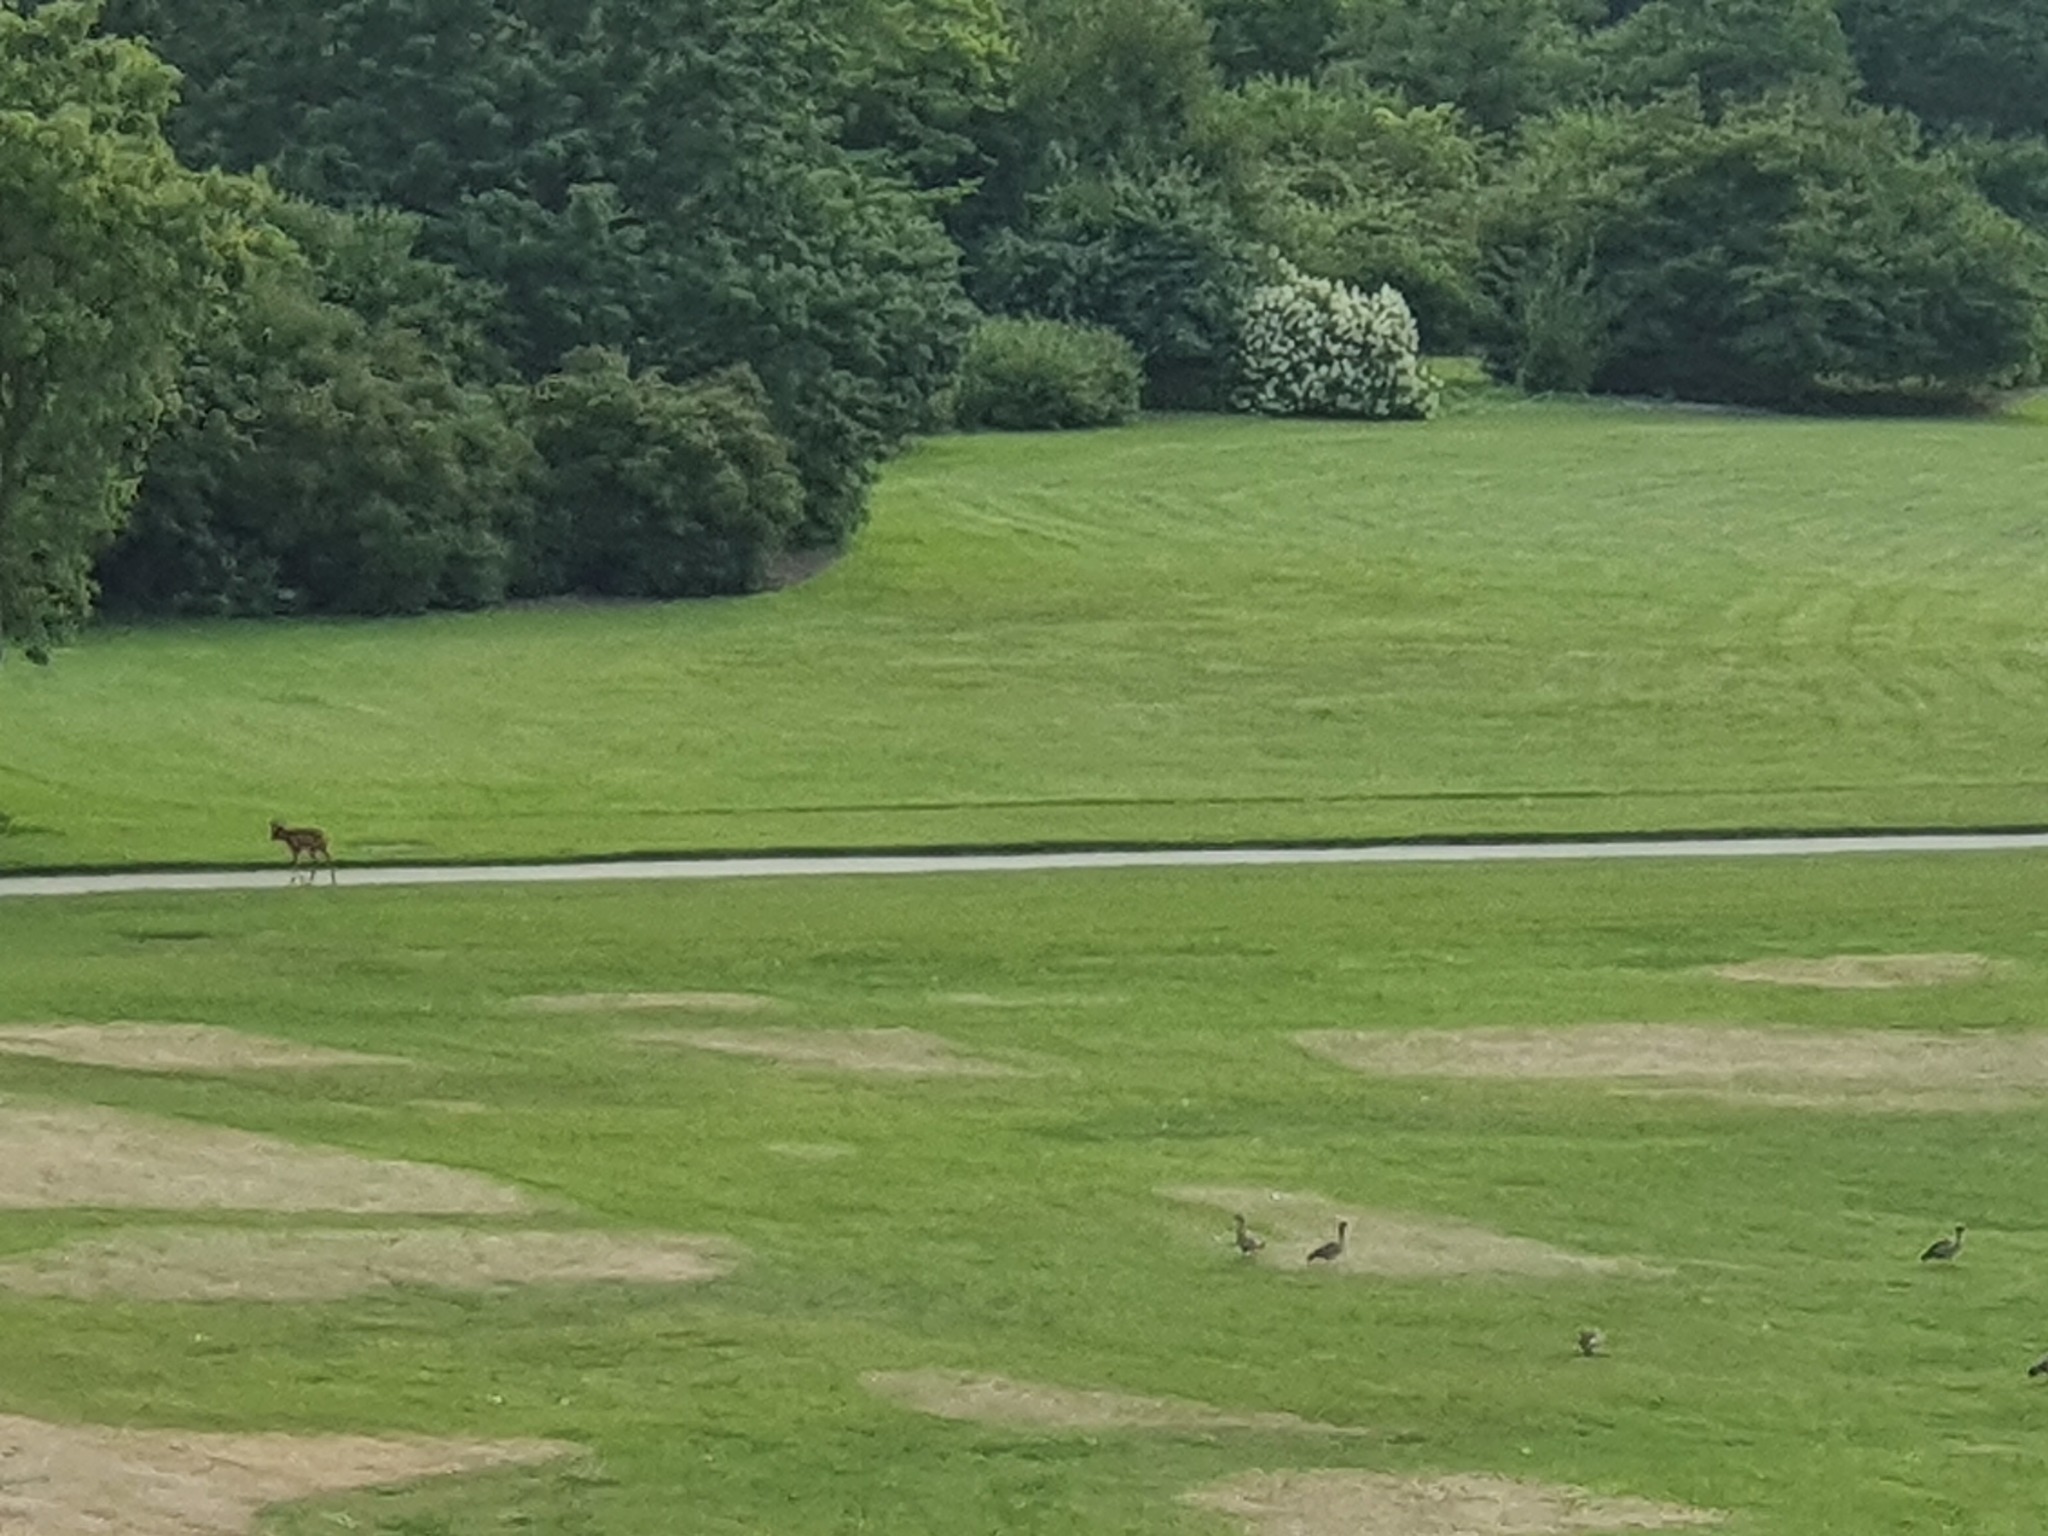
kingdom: Animalia
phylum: Chordata
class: Mammalia
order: Artiodactyla
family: Cervidae
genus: Capreolus
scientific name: Capreolus capreolus
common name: Western roe deer
